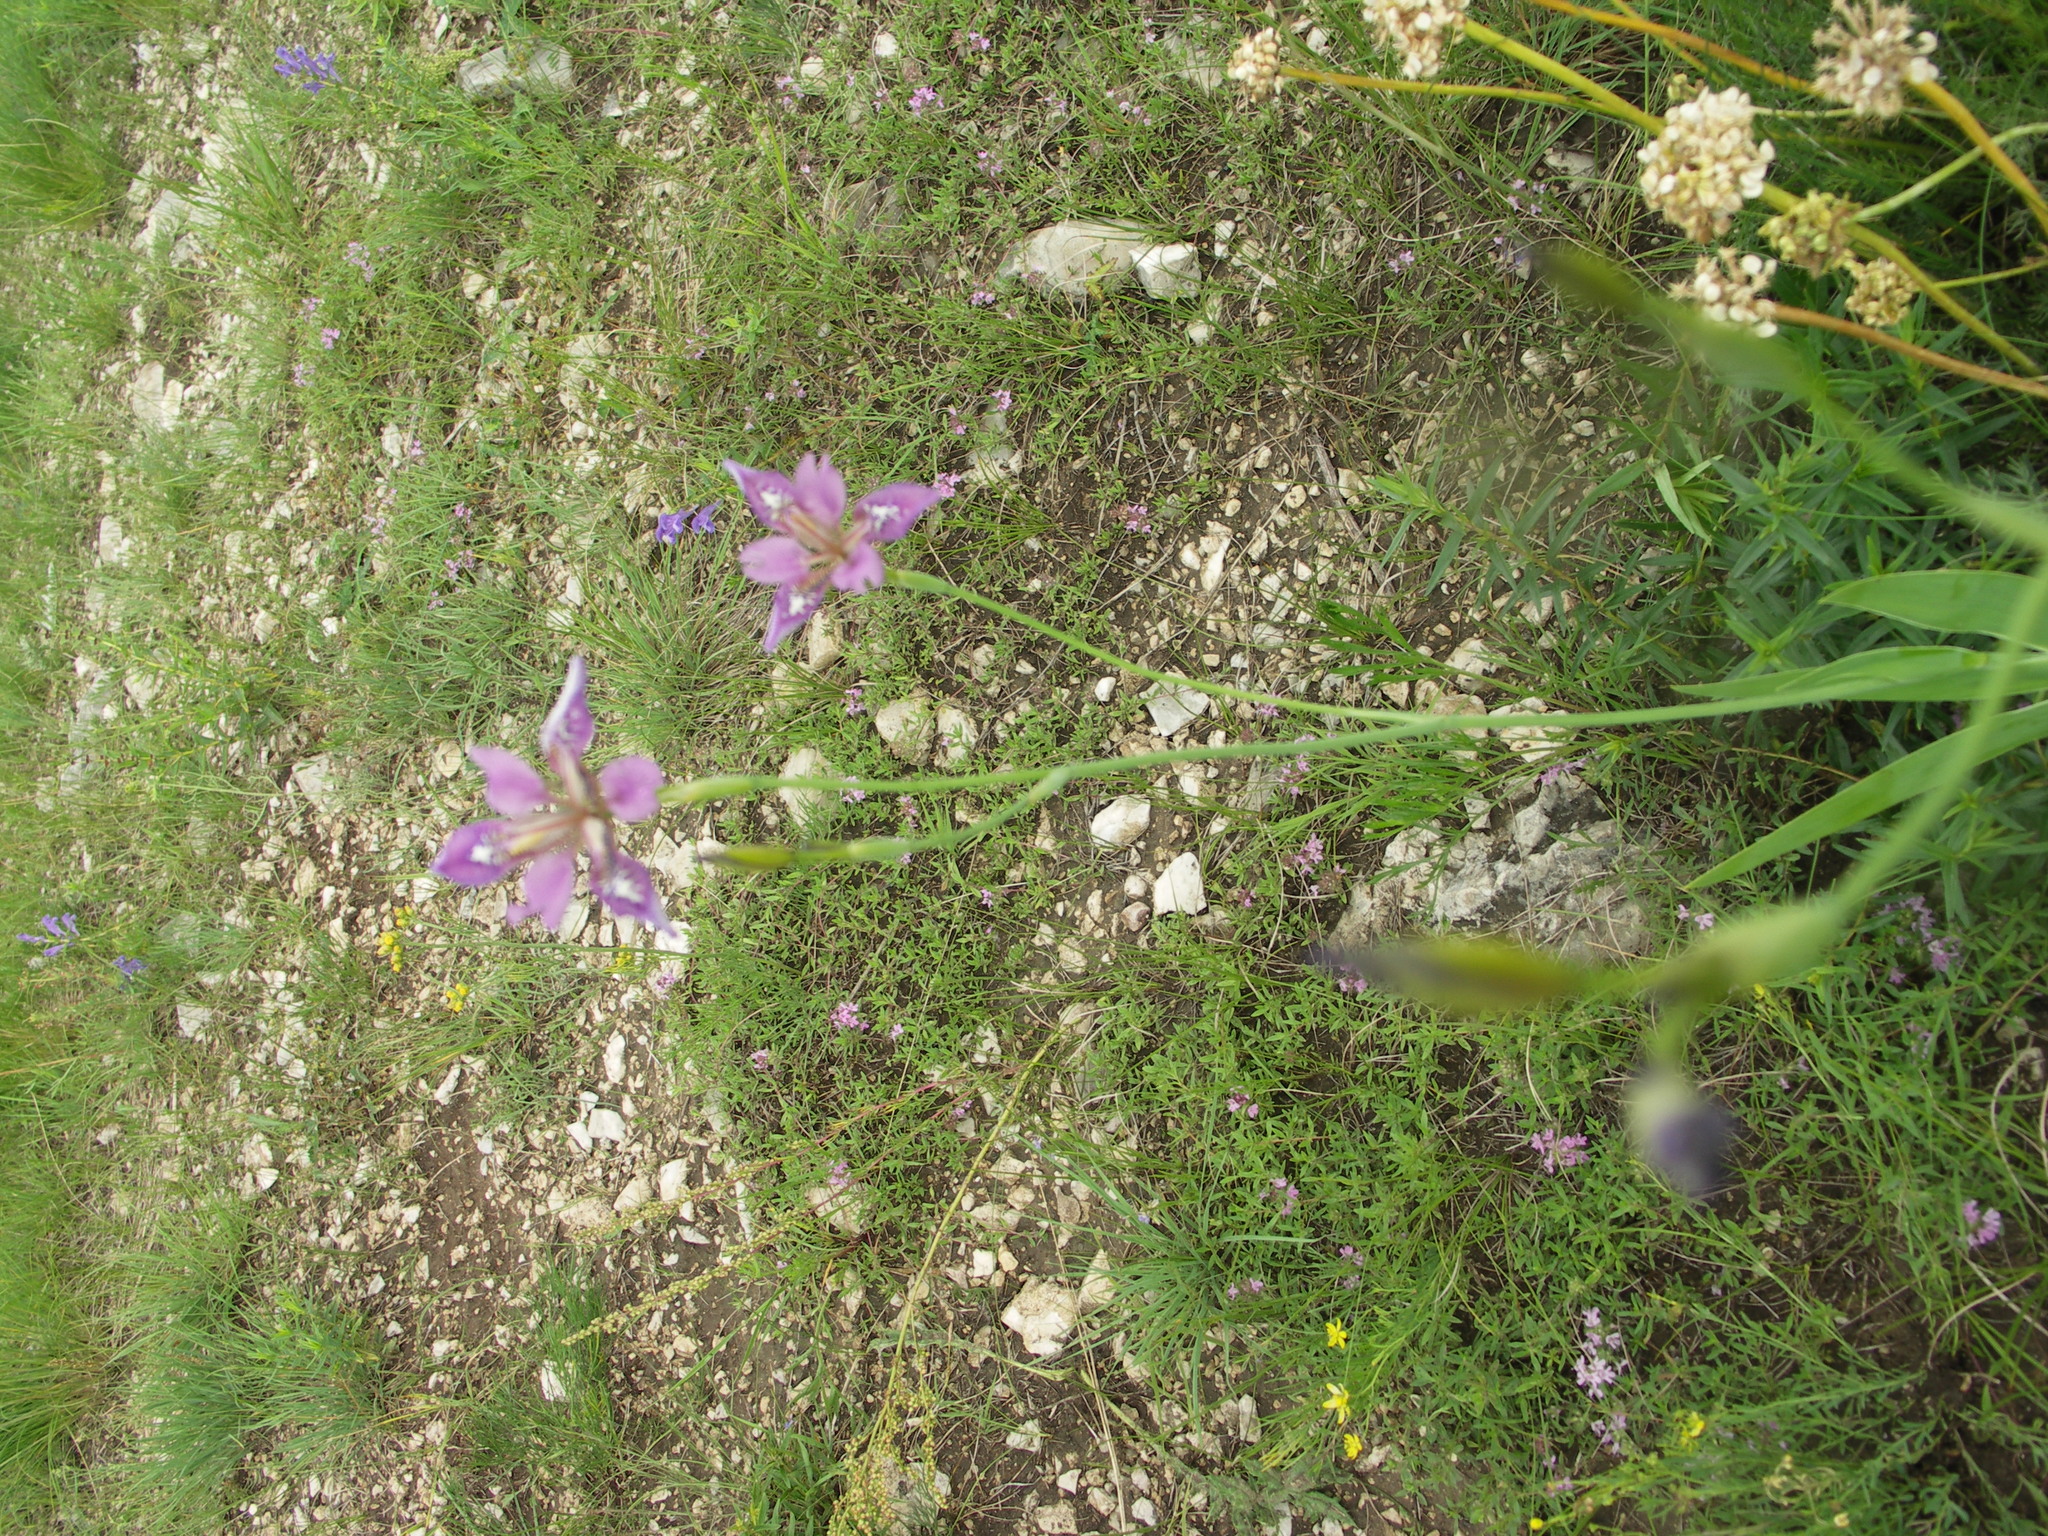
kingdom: Plantae
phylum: Tracheophyta
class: Liliopsida
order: Asparagales
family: Iridaceae
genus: Iris
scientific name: Iris dichotoma
